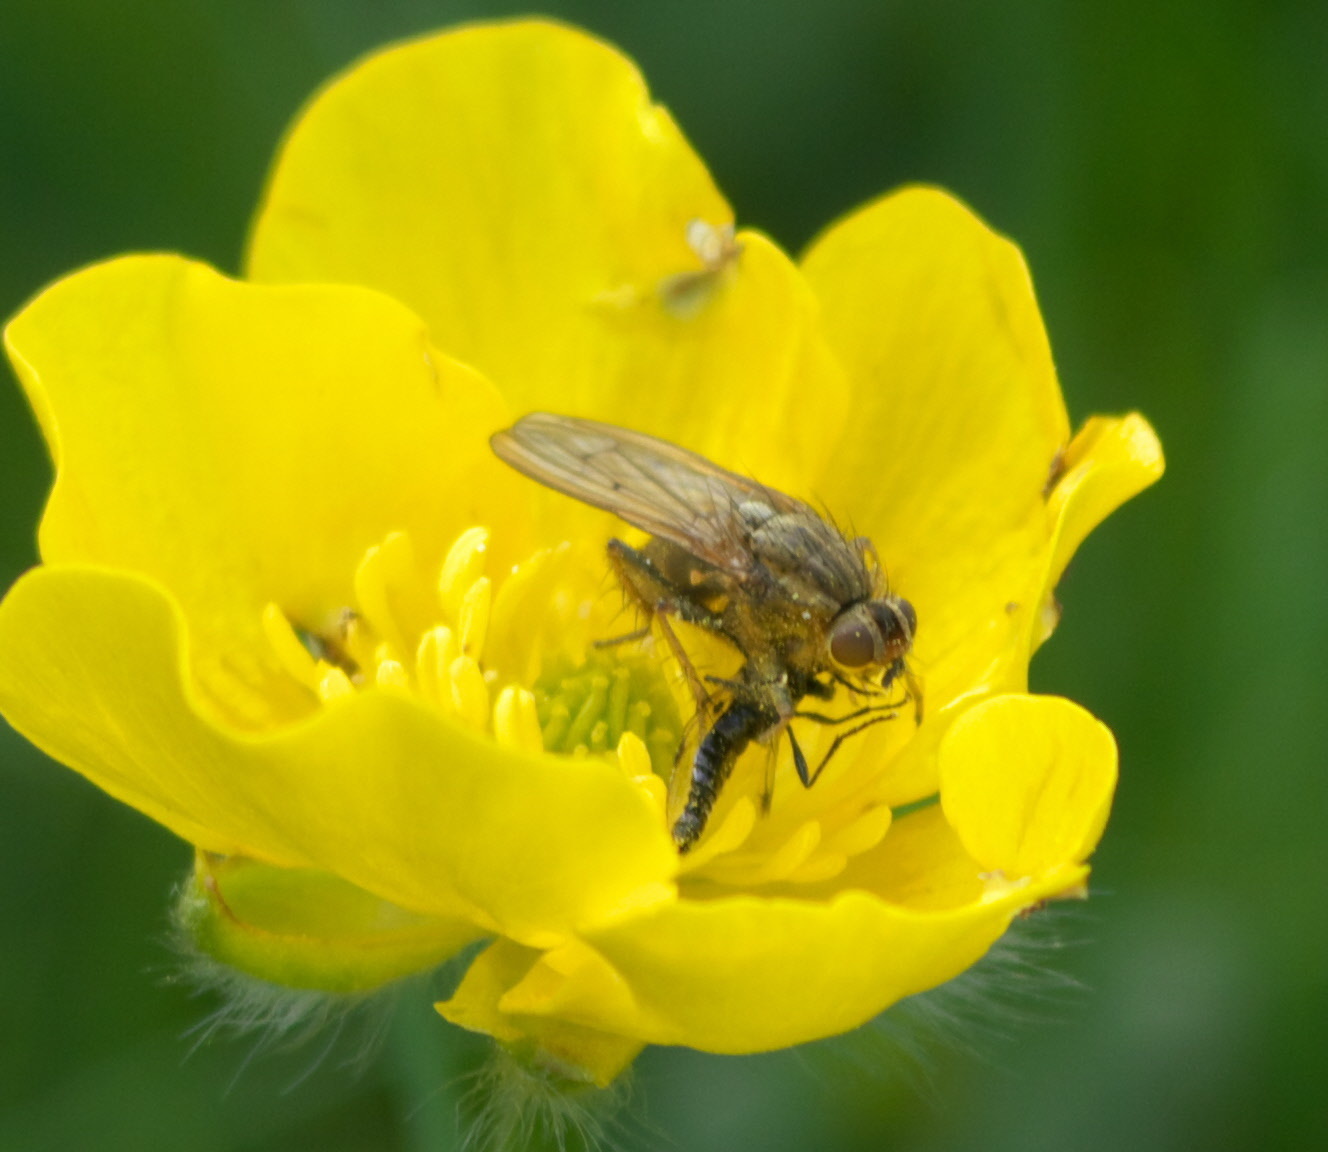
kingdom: Animalia
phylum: Arthropoda
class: Insecta
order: Diptera
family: Scathophagidae
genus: Scathophaga
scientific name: Scathophaga stercoraria
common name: Yellow dung fly
